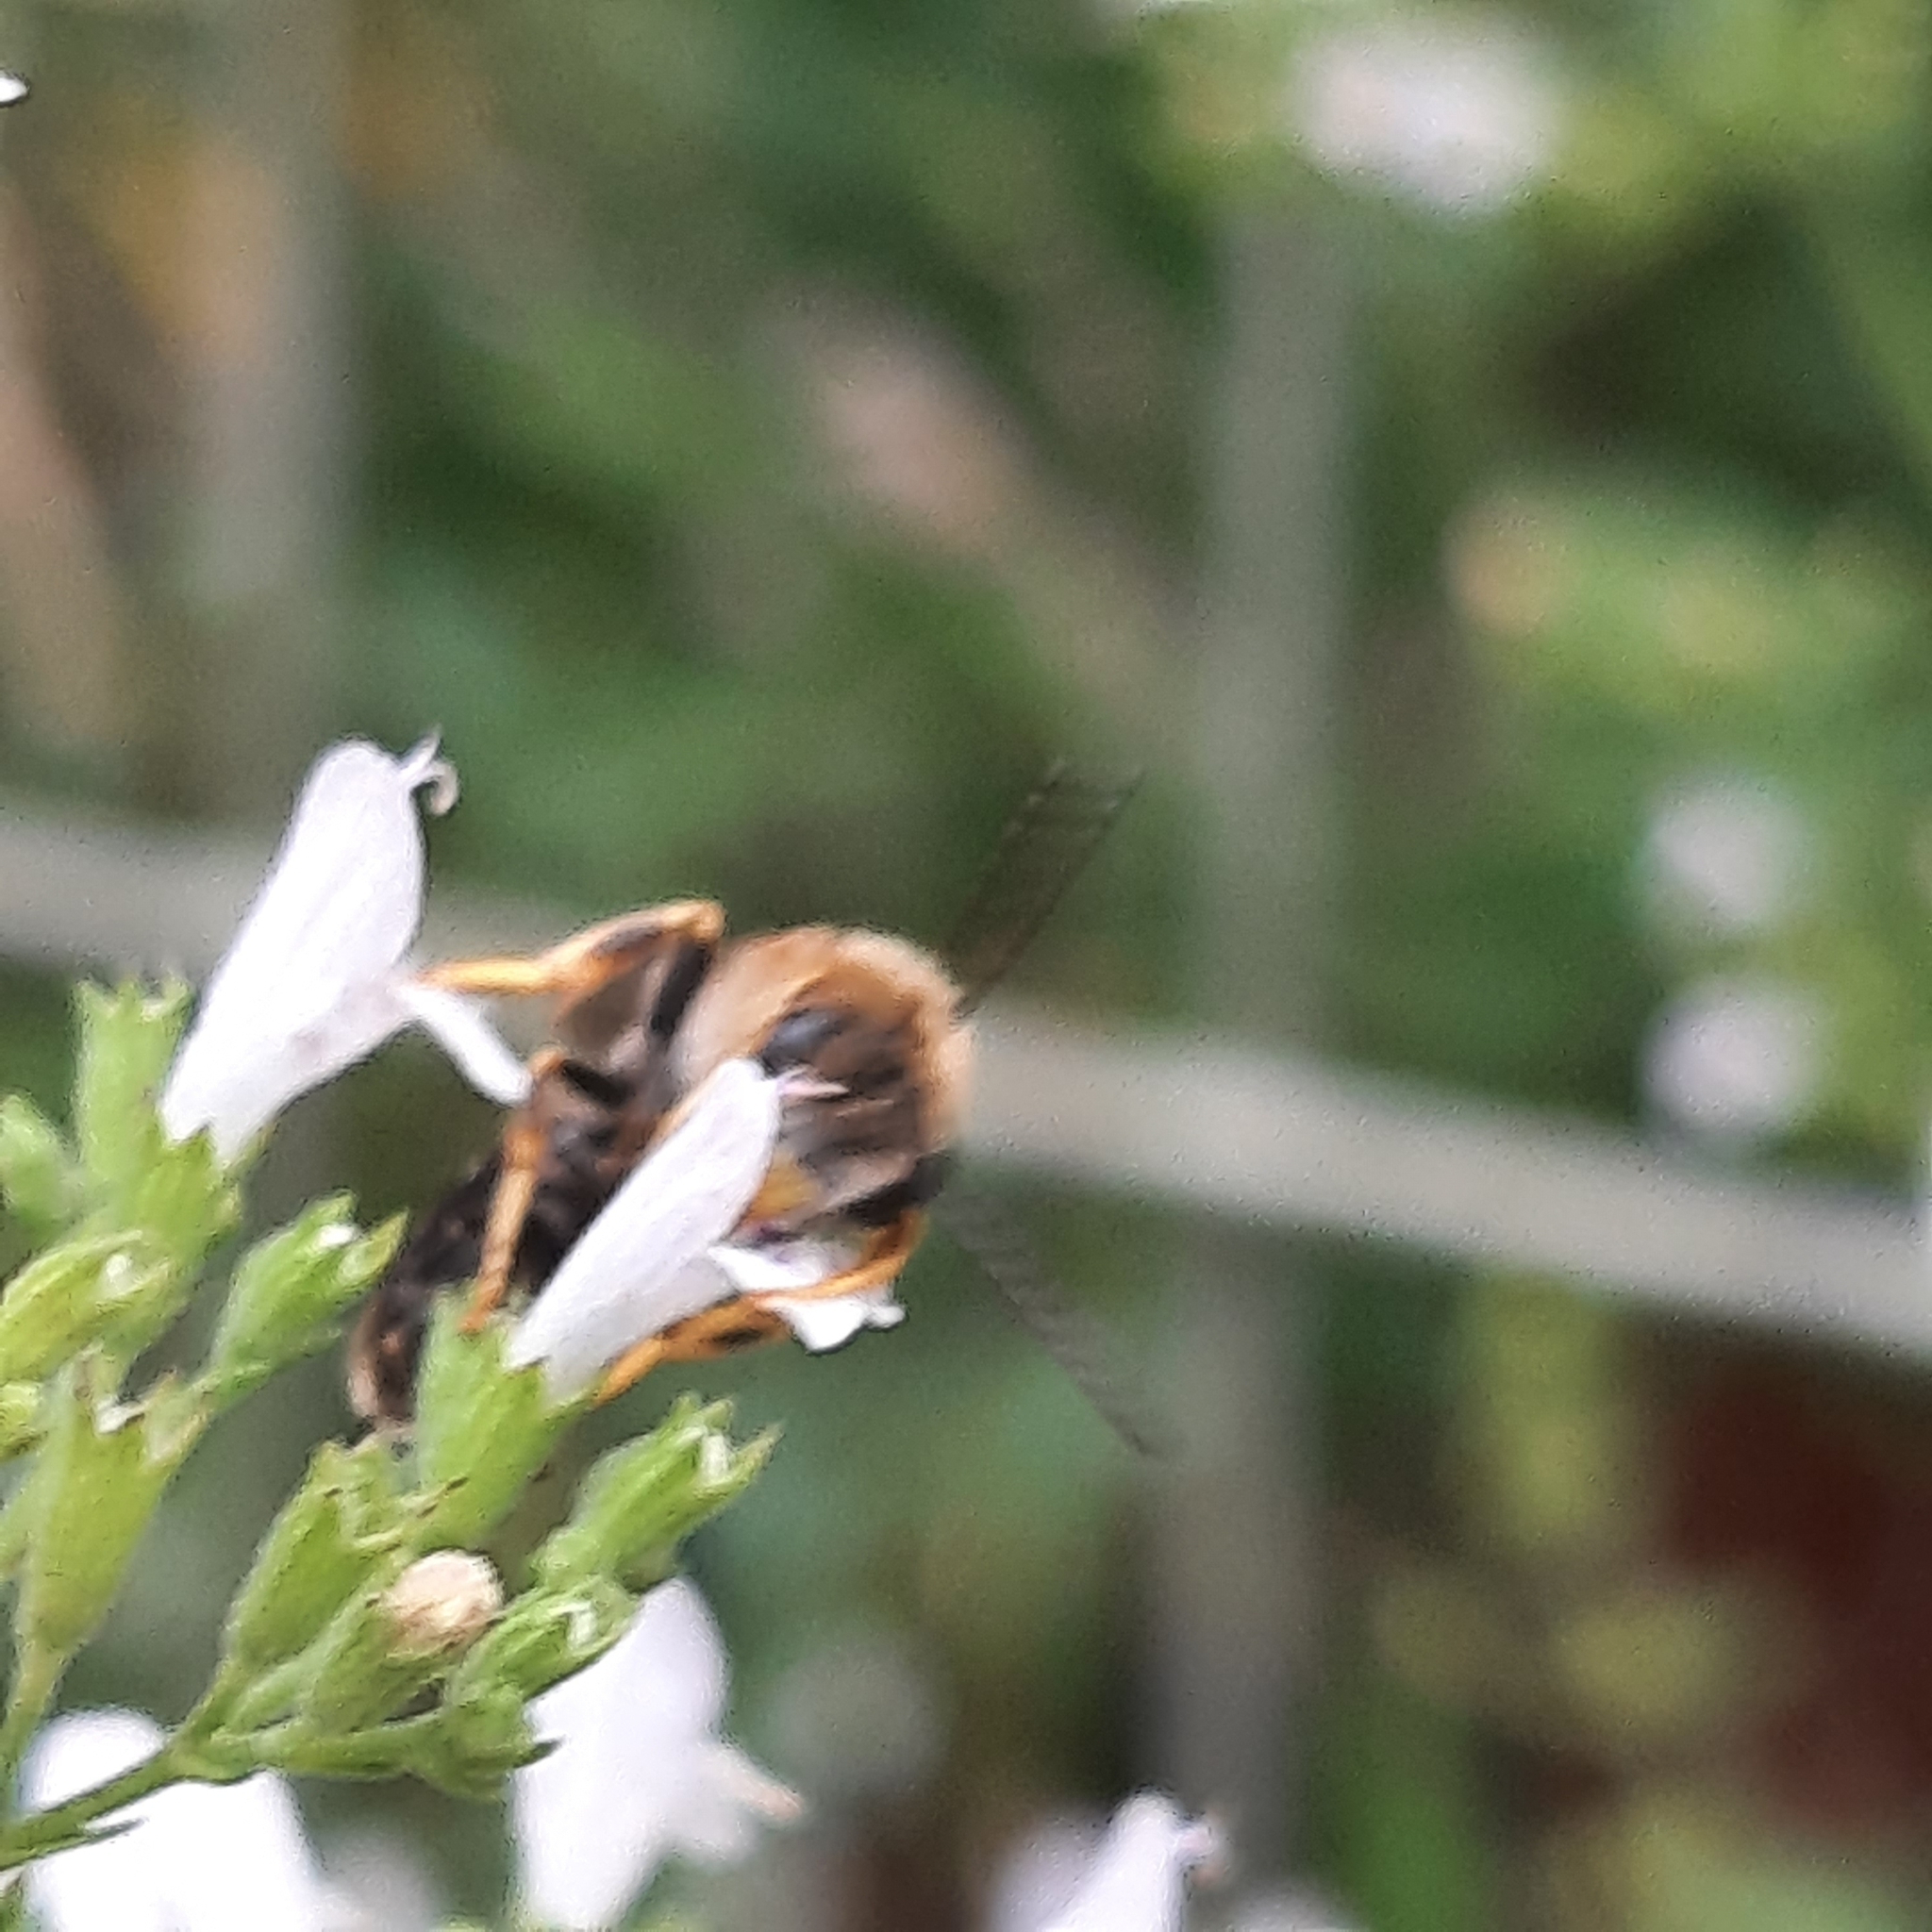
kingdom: Animalia
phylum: Arthropoda
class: Insecta
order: Hymenoptera
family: Halictidae
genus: Halictus
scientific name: Halictus
